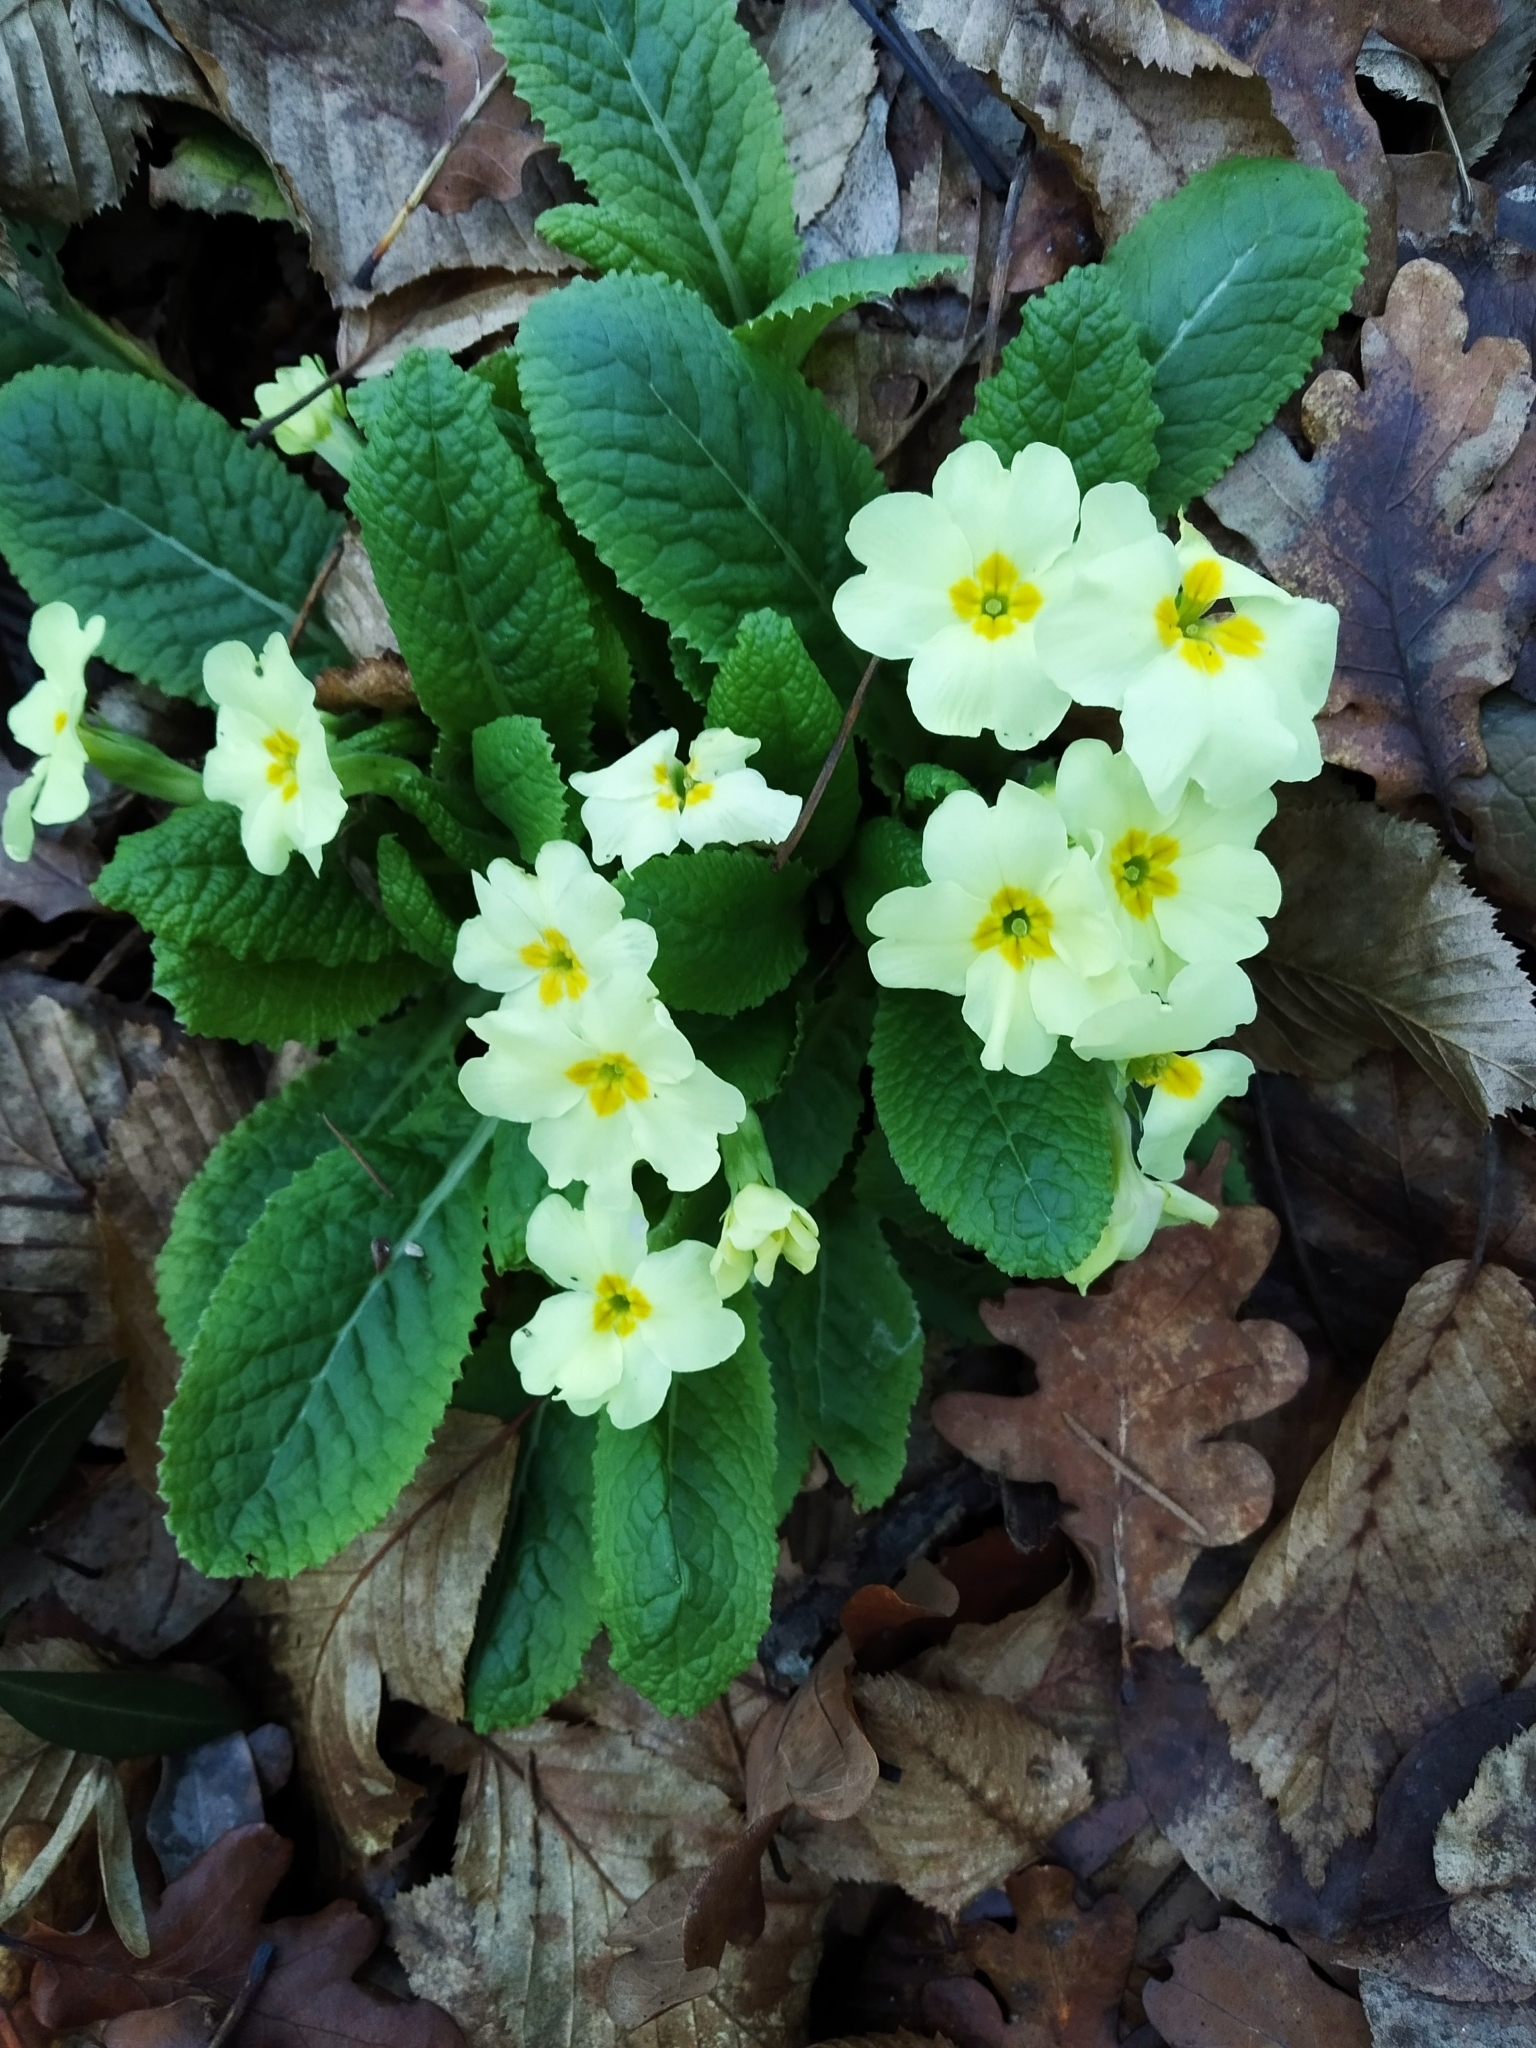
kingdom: Plantae
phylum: Tracheophyta
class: Magnoliopsida
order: Ericales
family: Primulaceae
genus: Primula
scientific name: Primula vulgaris
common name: Primrose
